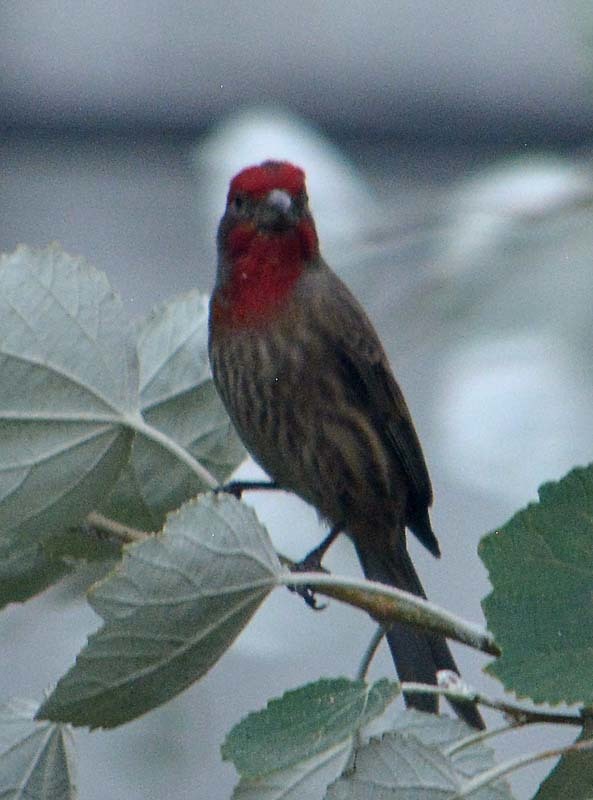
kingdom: Animalia
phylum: Chordata
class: Aves
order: Passeriformes
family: Fringillidae
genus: Haemorhous
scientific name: Haemorhous mexicanus
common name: House finch
